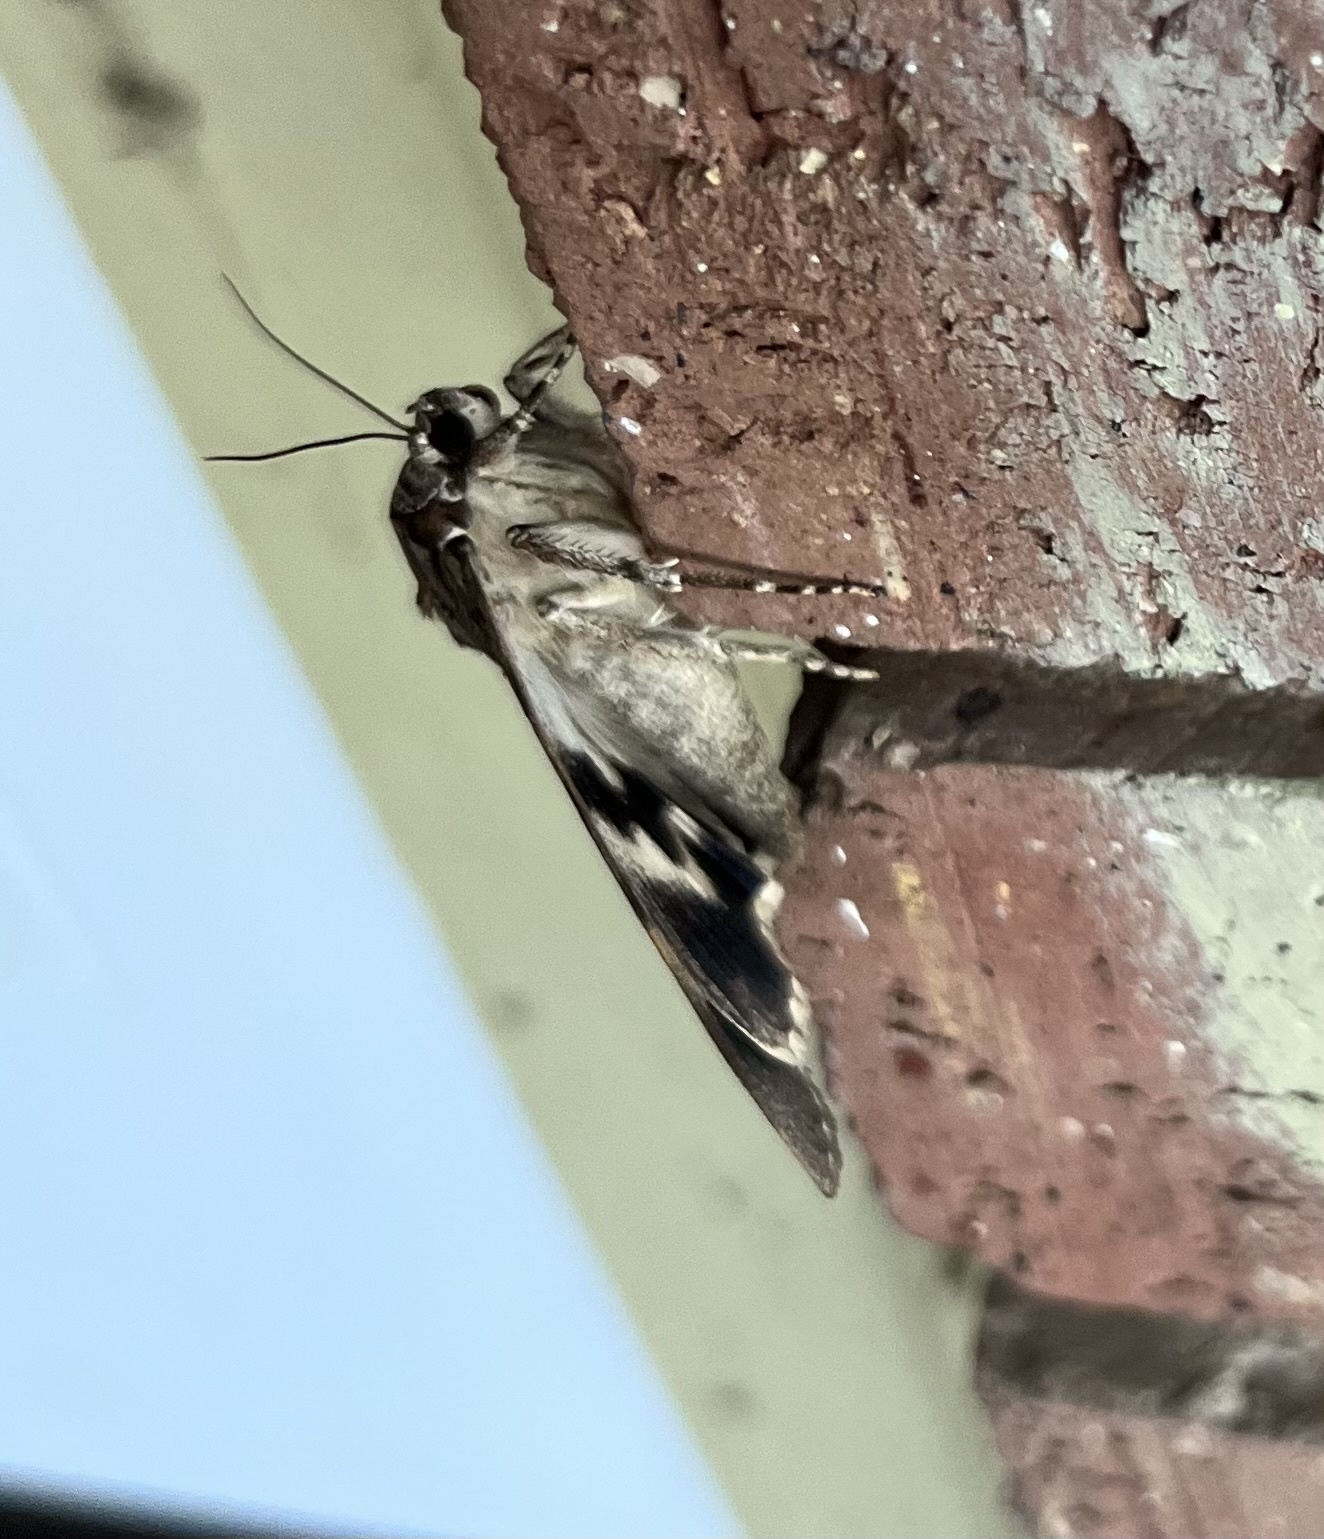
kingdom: Animalia
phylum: Arthropoda
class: Insecta
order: Lepidoptera
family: Erebidae
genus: Catocala
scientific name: Catocala agrippina
